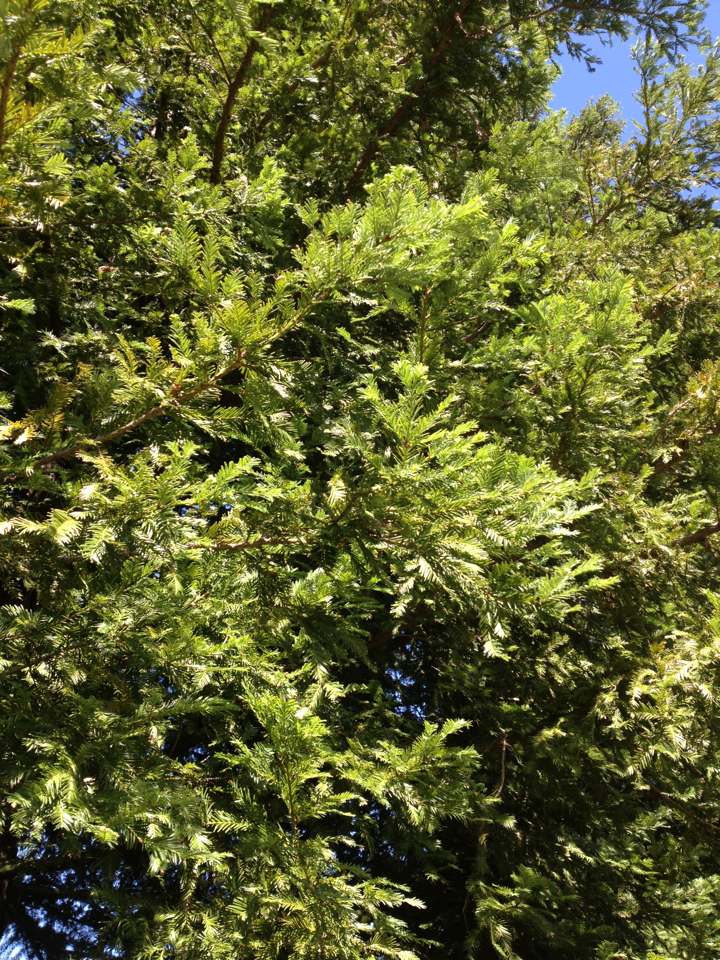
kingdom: Plantae
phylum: Tracheophyta
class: Pinopsida
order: Pinales
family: Cupressaceae
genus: Sequoia
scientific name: Sequoia sempervirens
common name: Coast redwood
